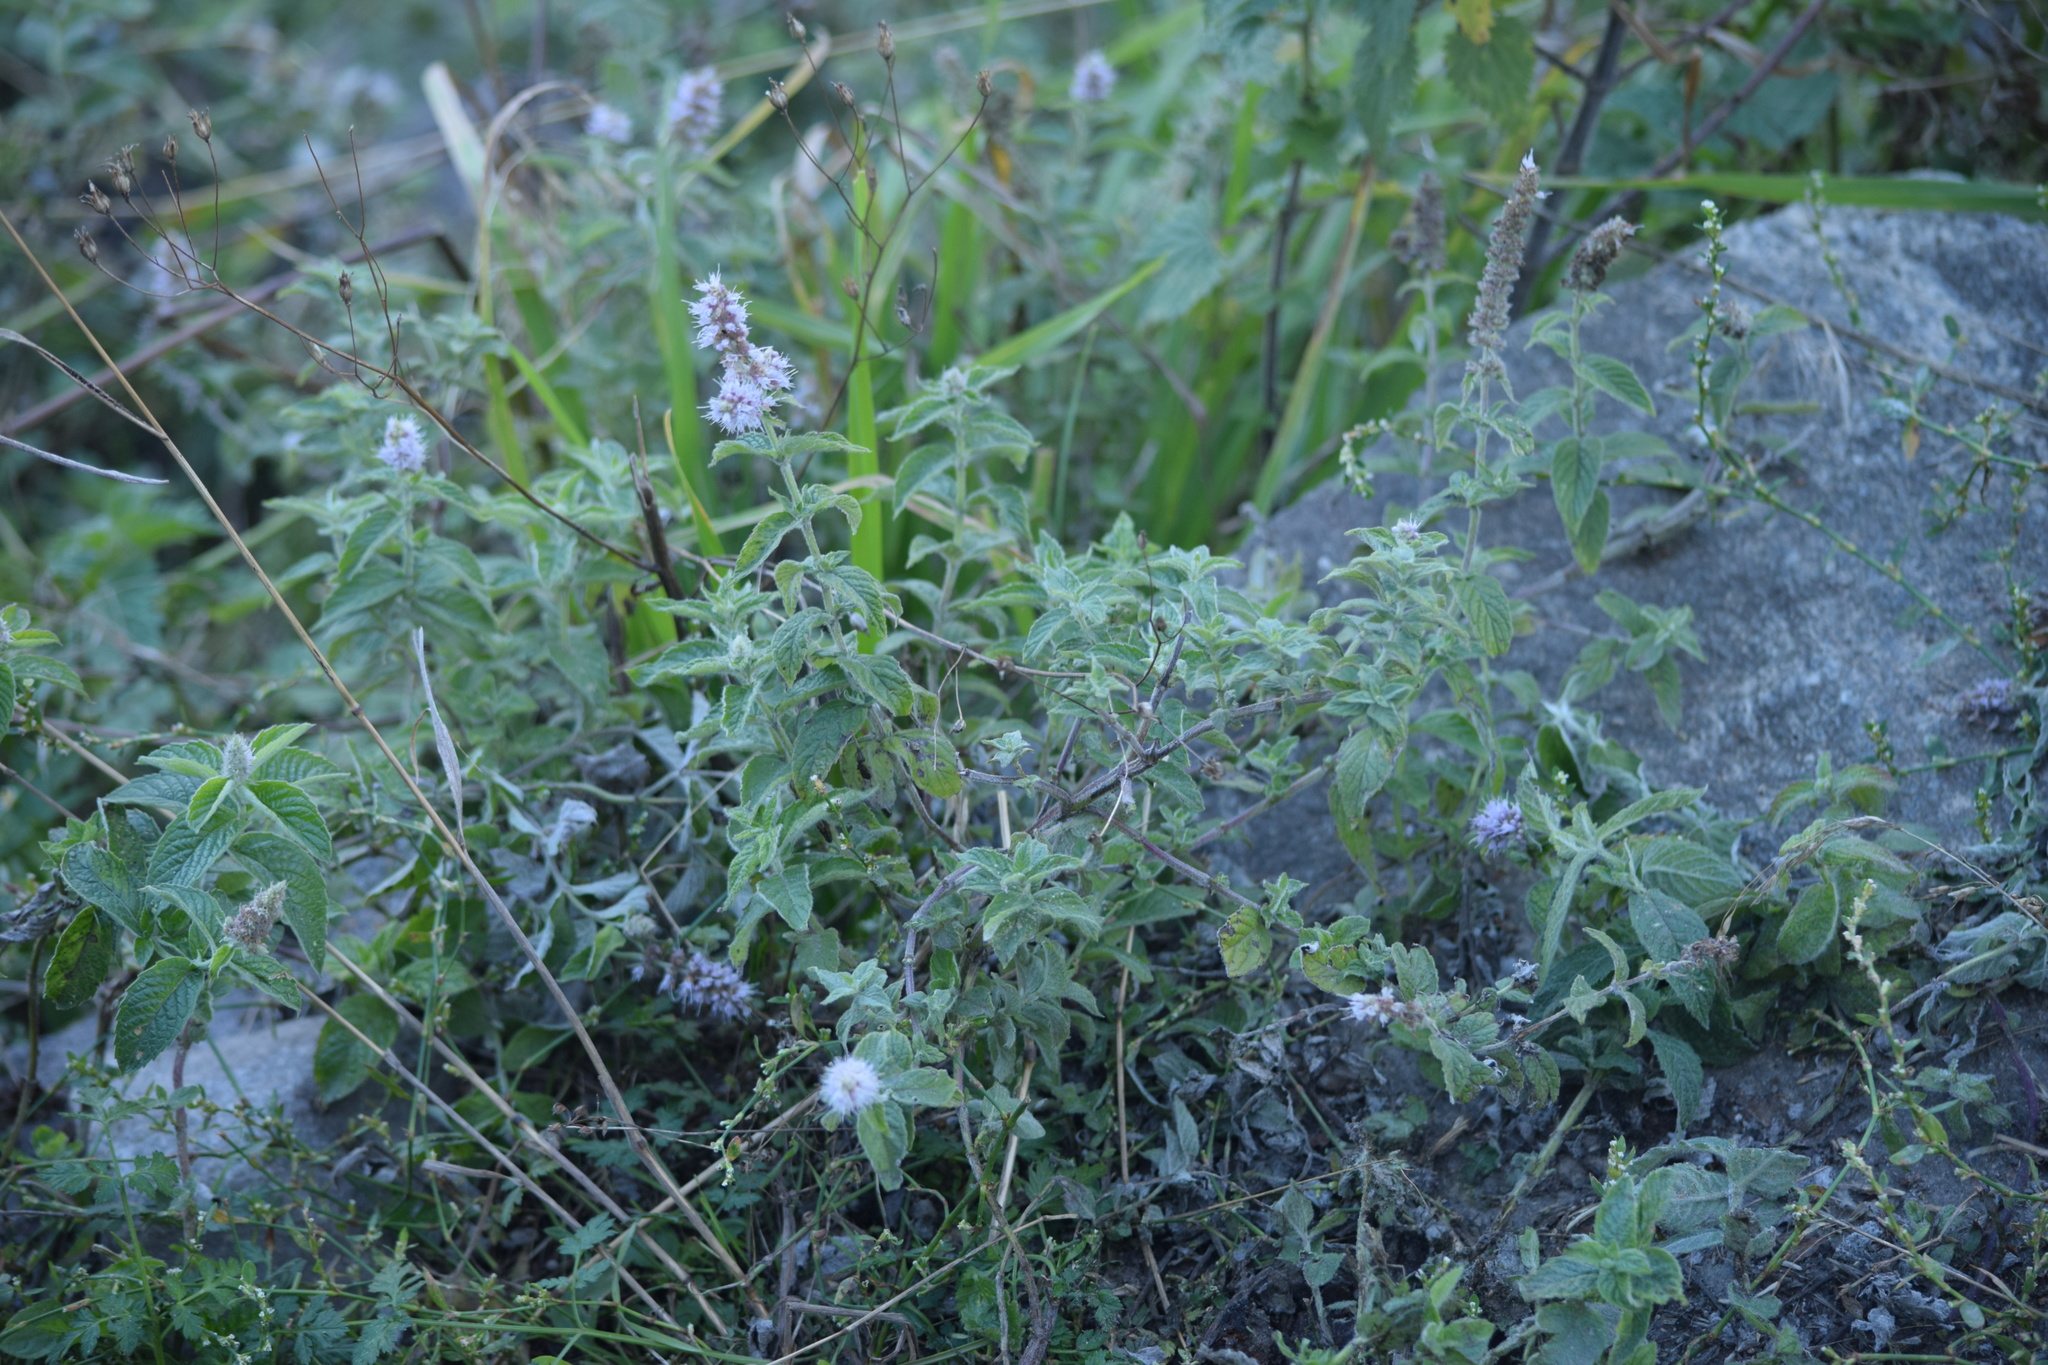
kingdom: Plantae
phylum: Tracheophyta
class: Magnoliopsida
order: Lamiales
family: Lamiaceae
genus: Mentha
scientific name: Mentha longifolia
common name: Horse mint
